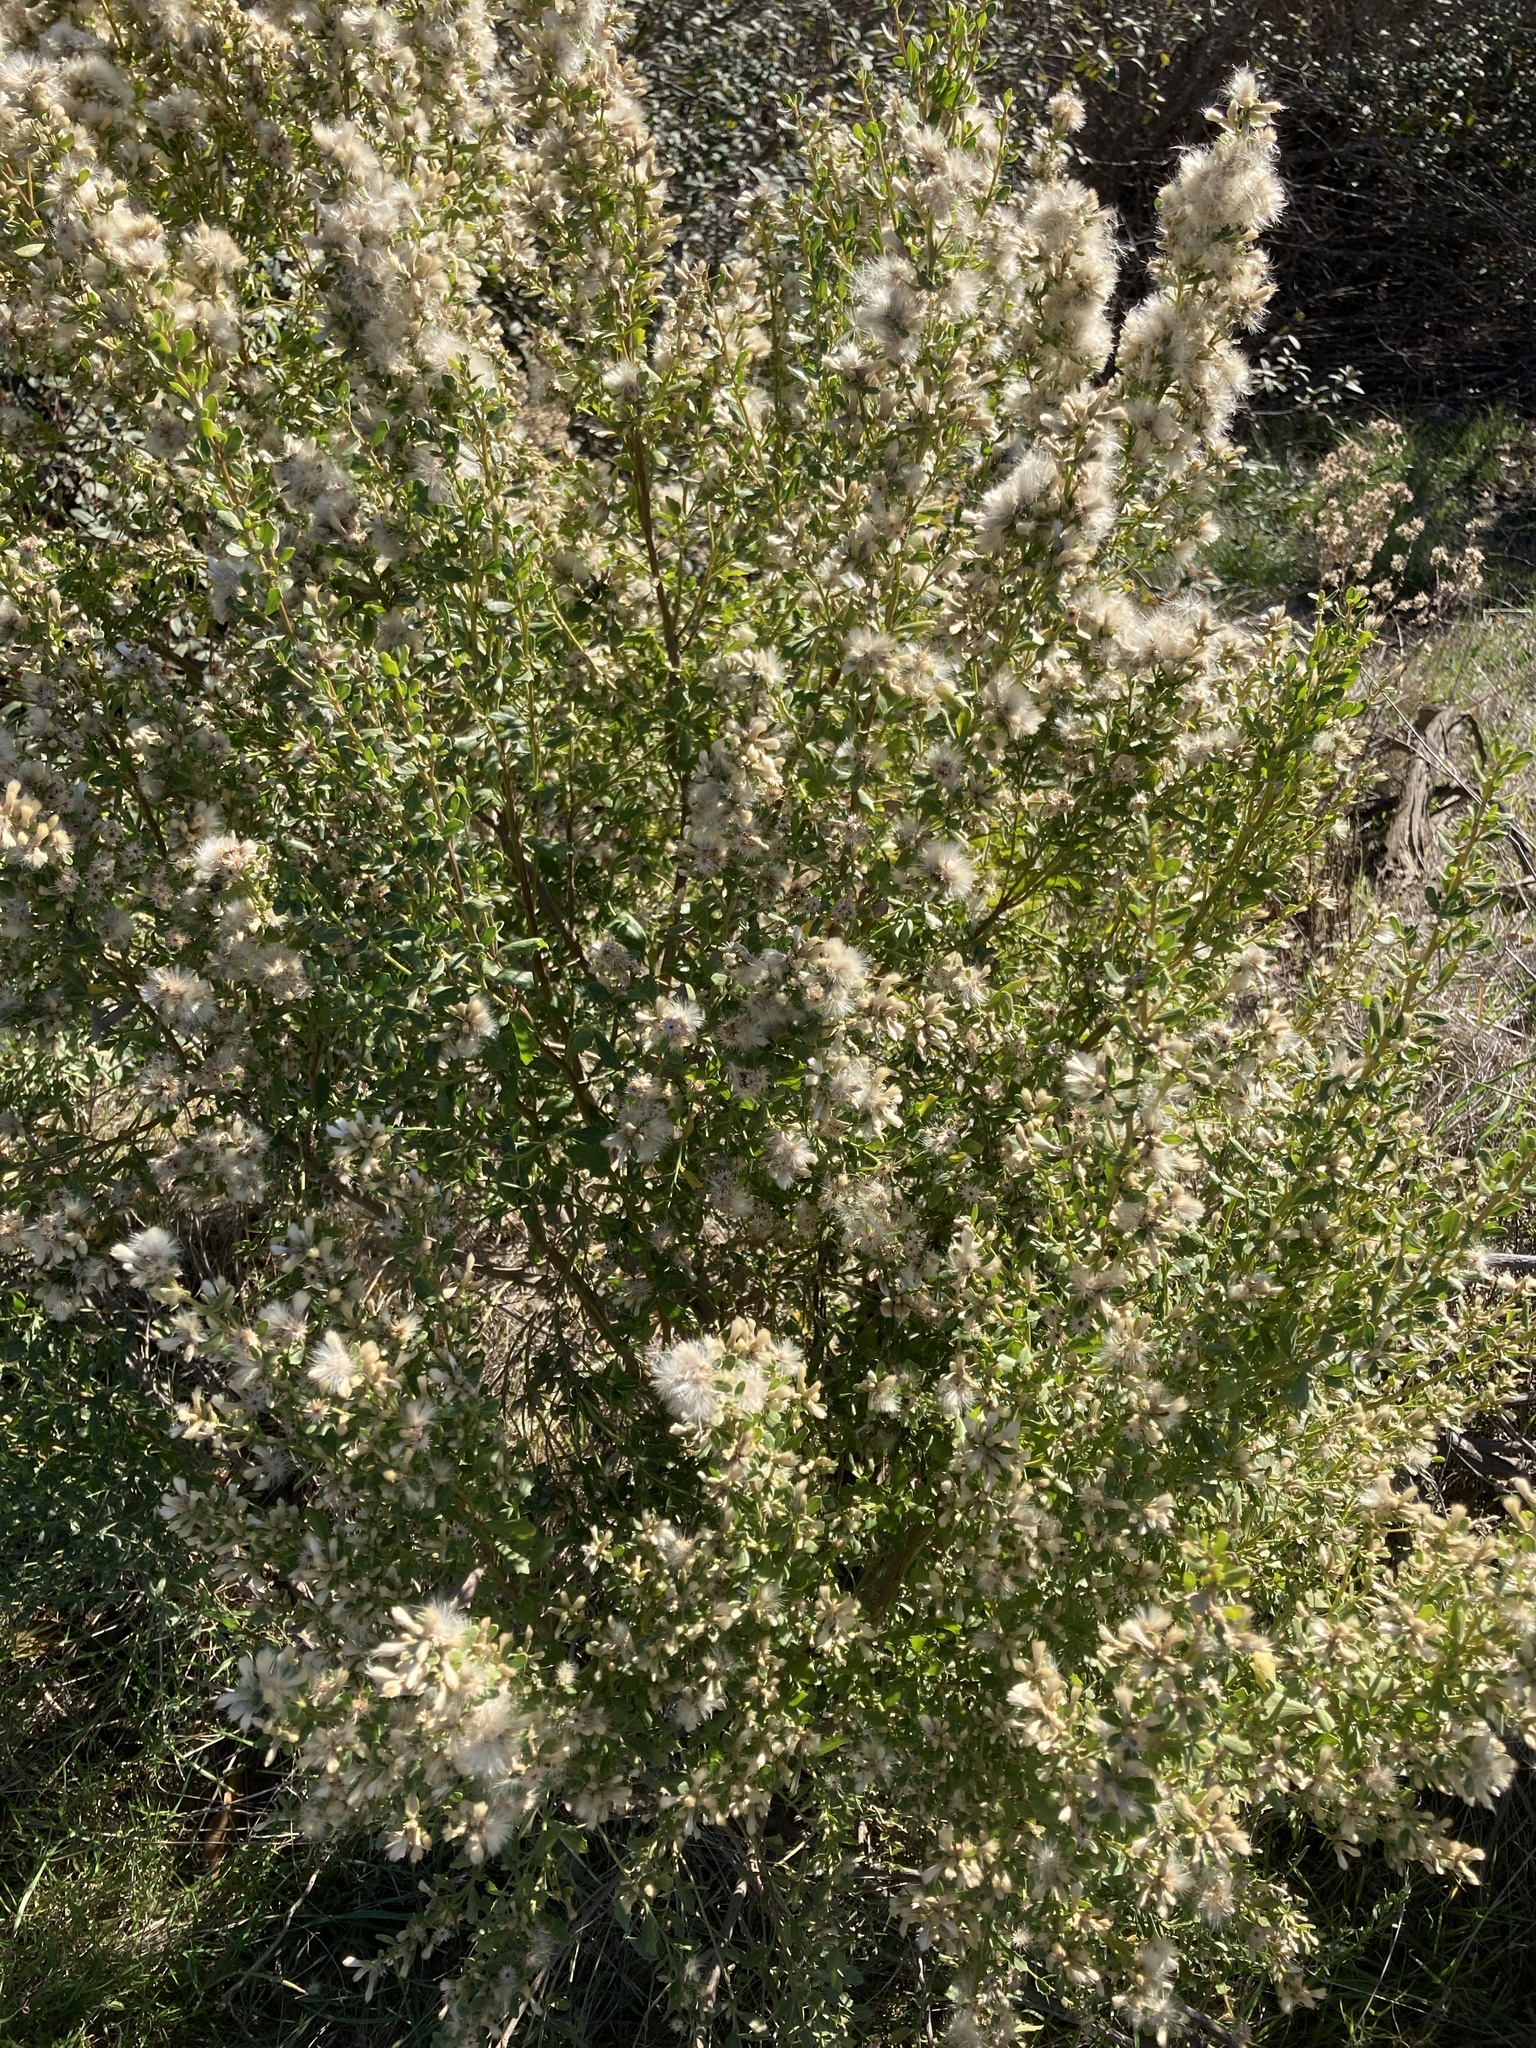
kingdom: Plantae
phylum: Tracheophyta
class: Magnoliopsida
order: Asterales
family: Asteraceae
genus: Baccharis
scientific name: Baccharis pilularis
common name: Coyotebrush
